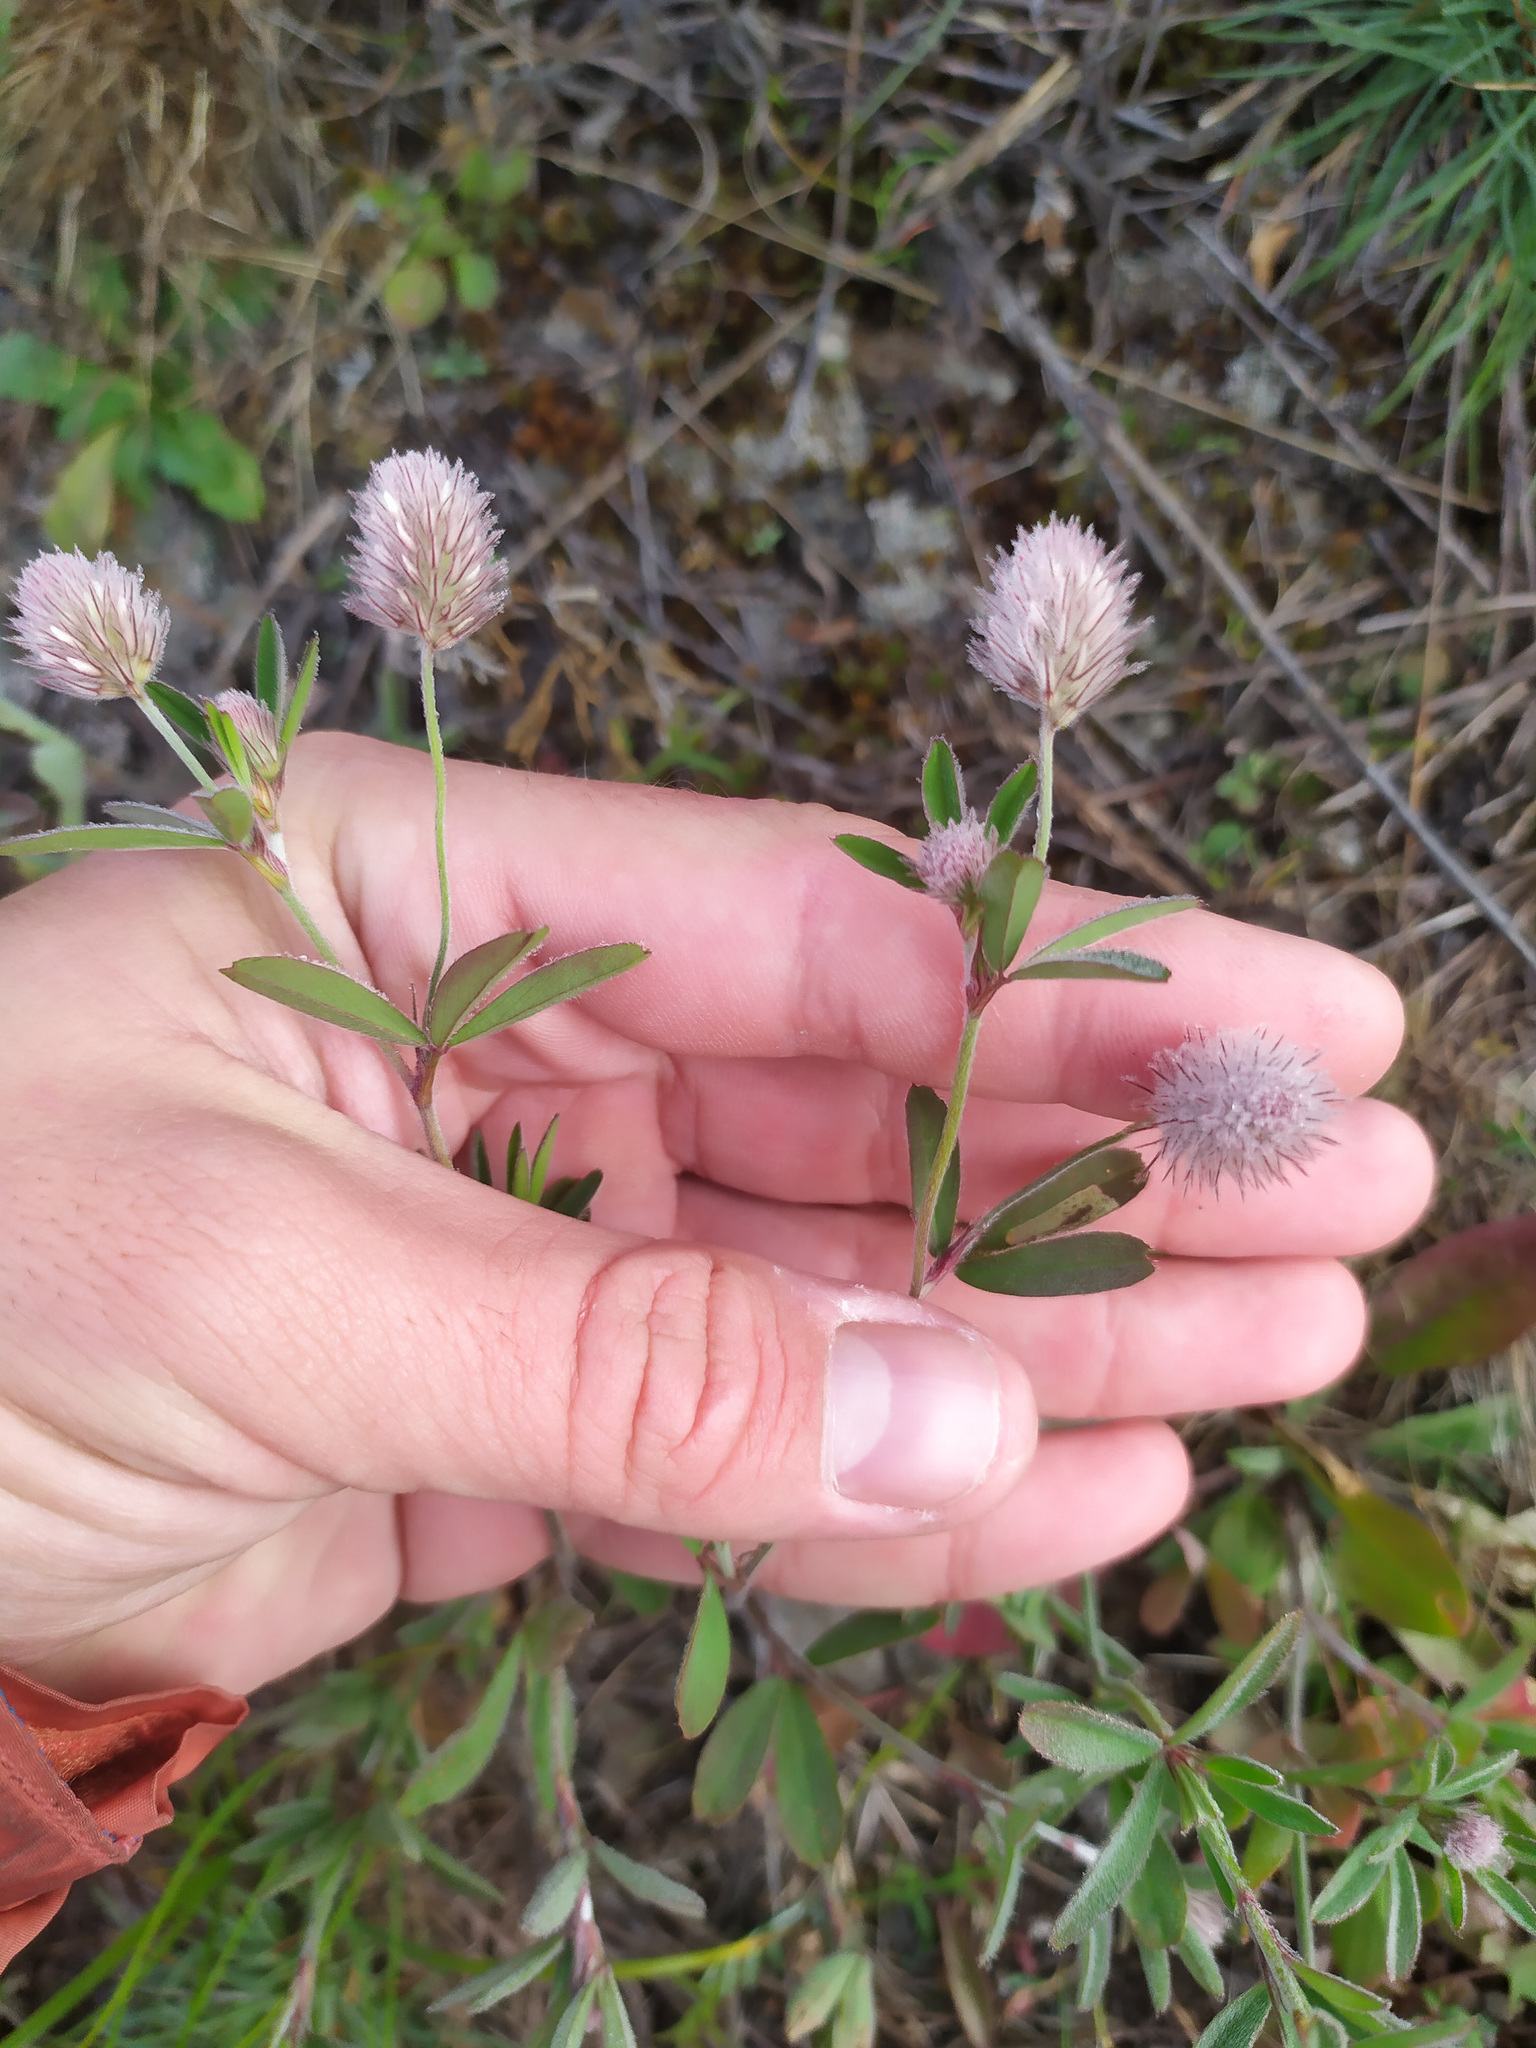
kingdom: Plantae
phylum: Tracheophyta
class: Magnoliopsida
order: Fabales
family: Fabaceae
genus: Trifolium
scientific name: Trifolium arvense
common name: Hare's-foot clover
